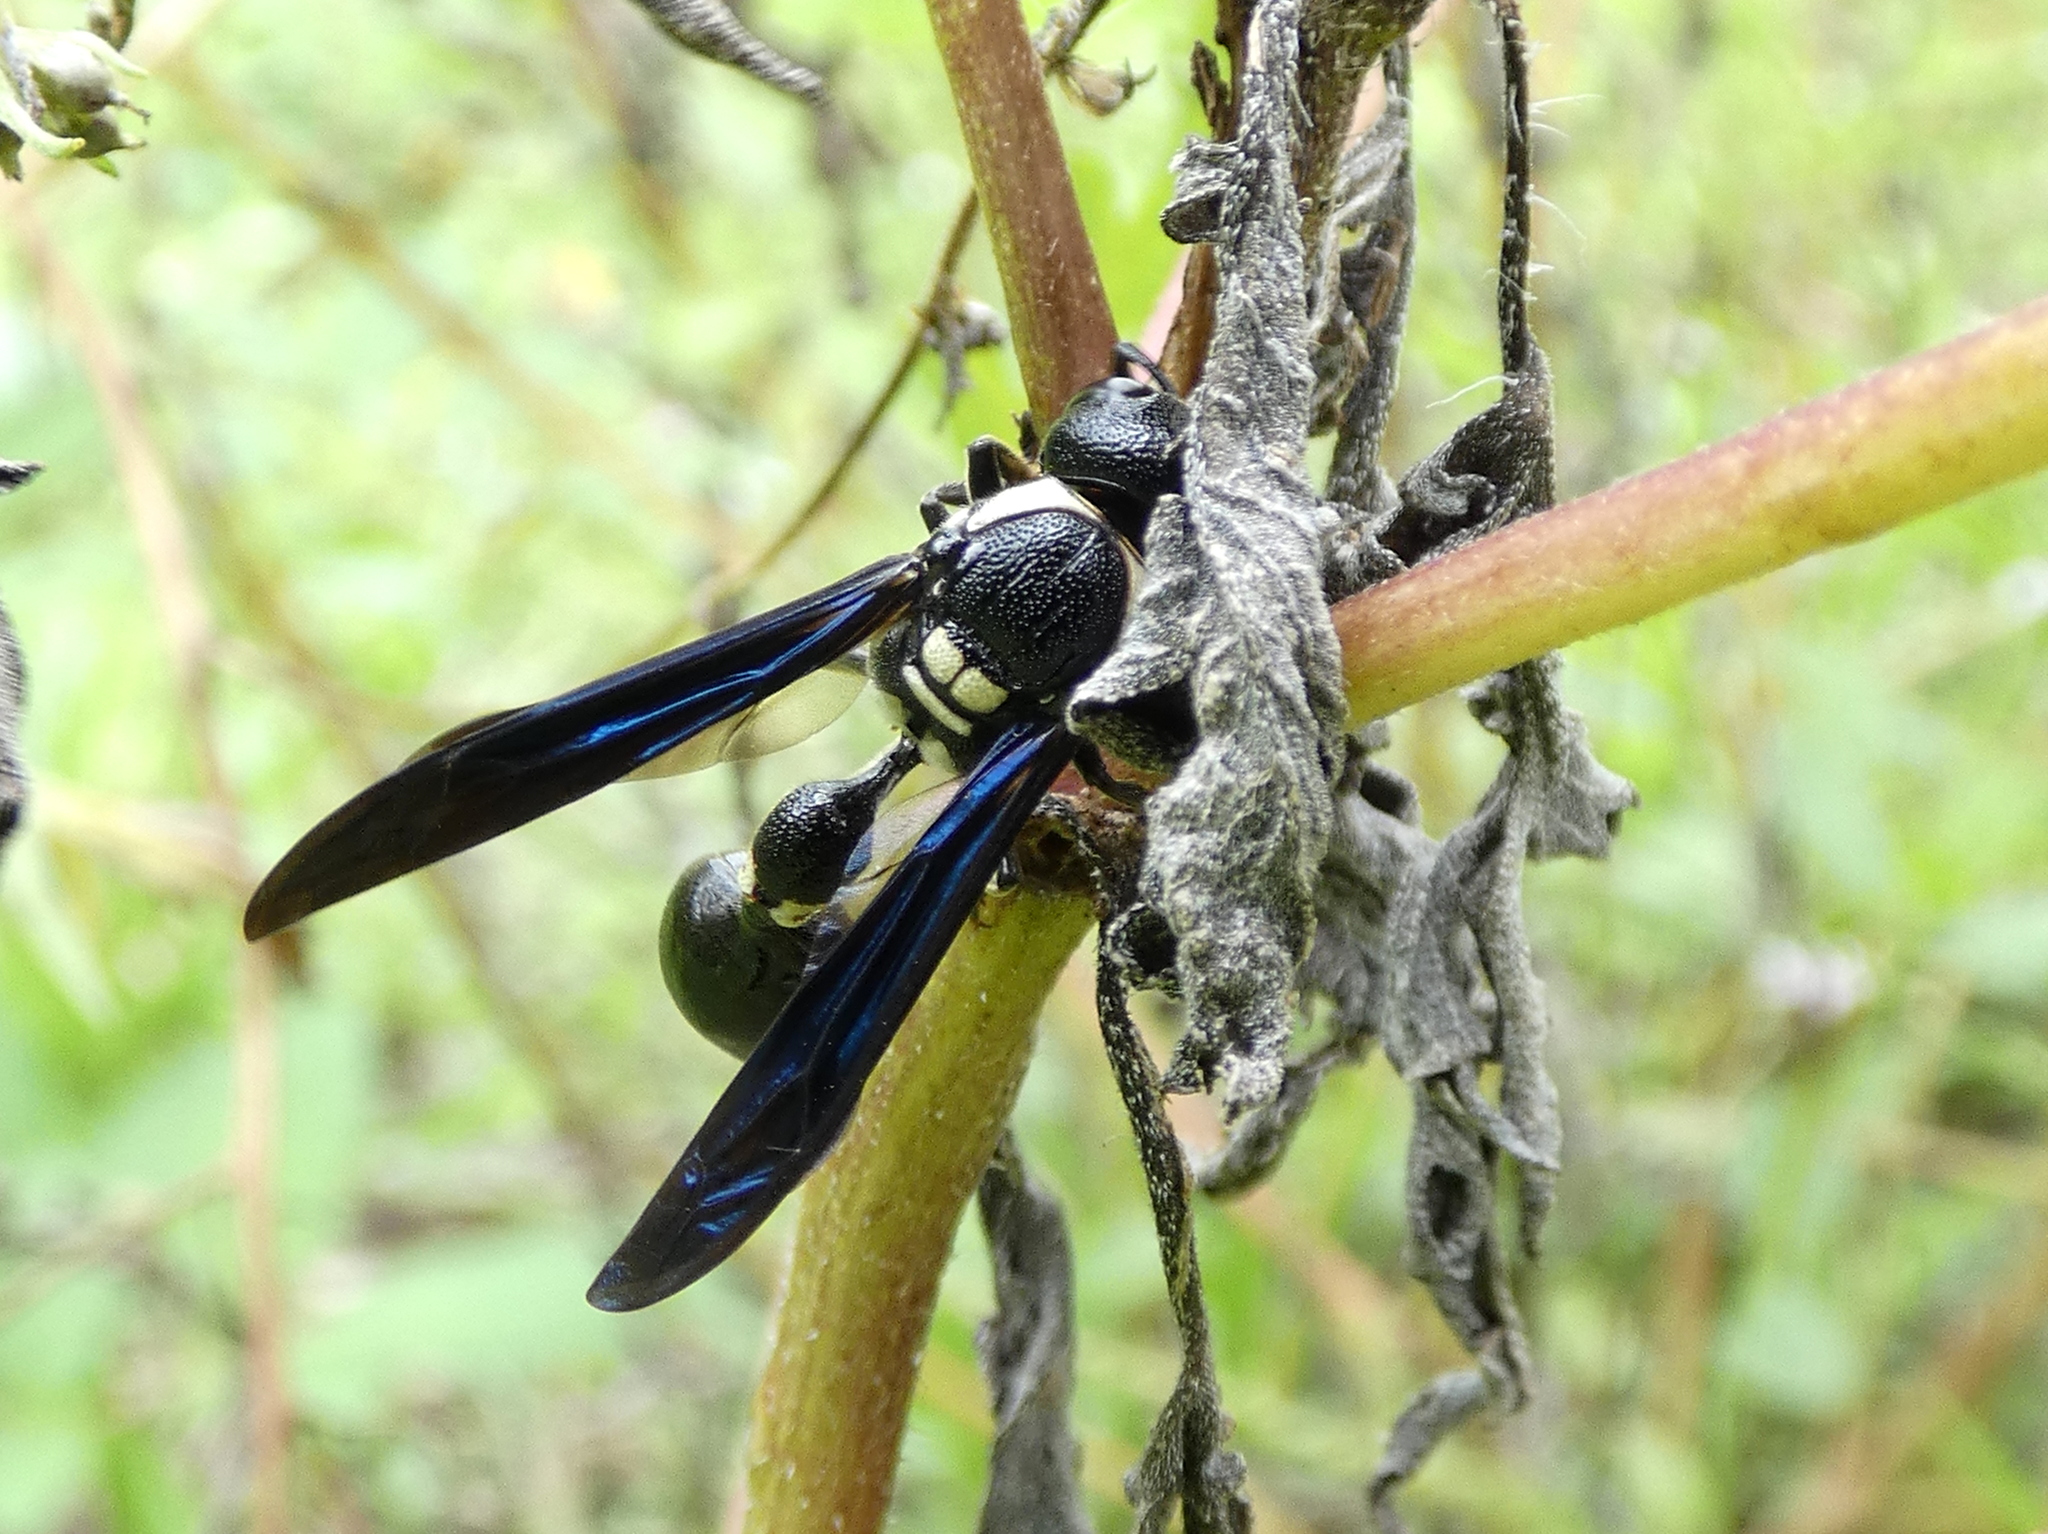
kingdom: Animalia
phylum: Arthropoda
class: Insecta
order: Hymenoptera
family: Eumenidae
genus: Zethus
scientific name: Zethus spinipes
